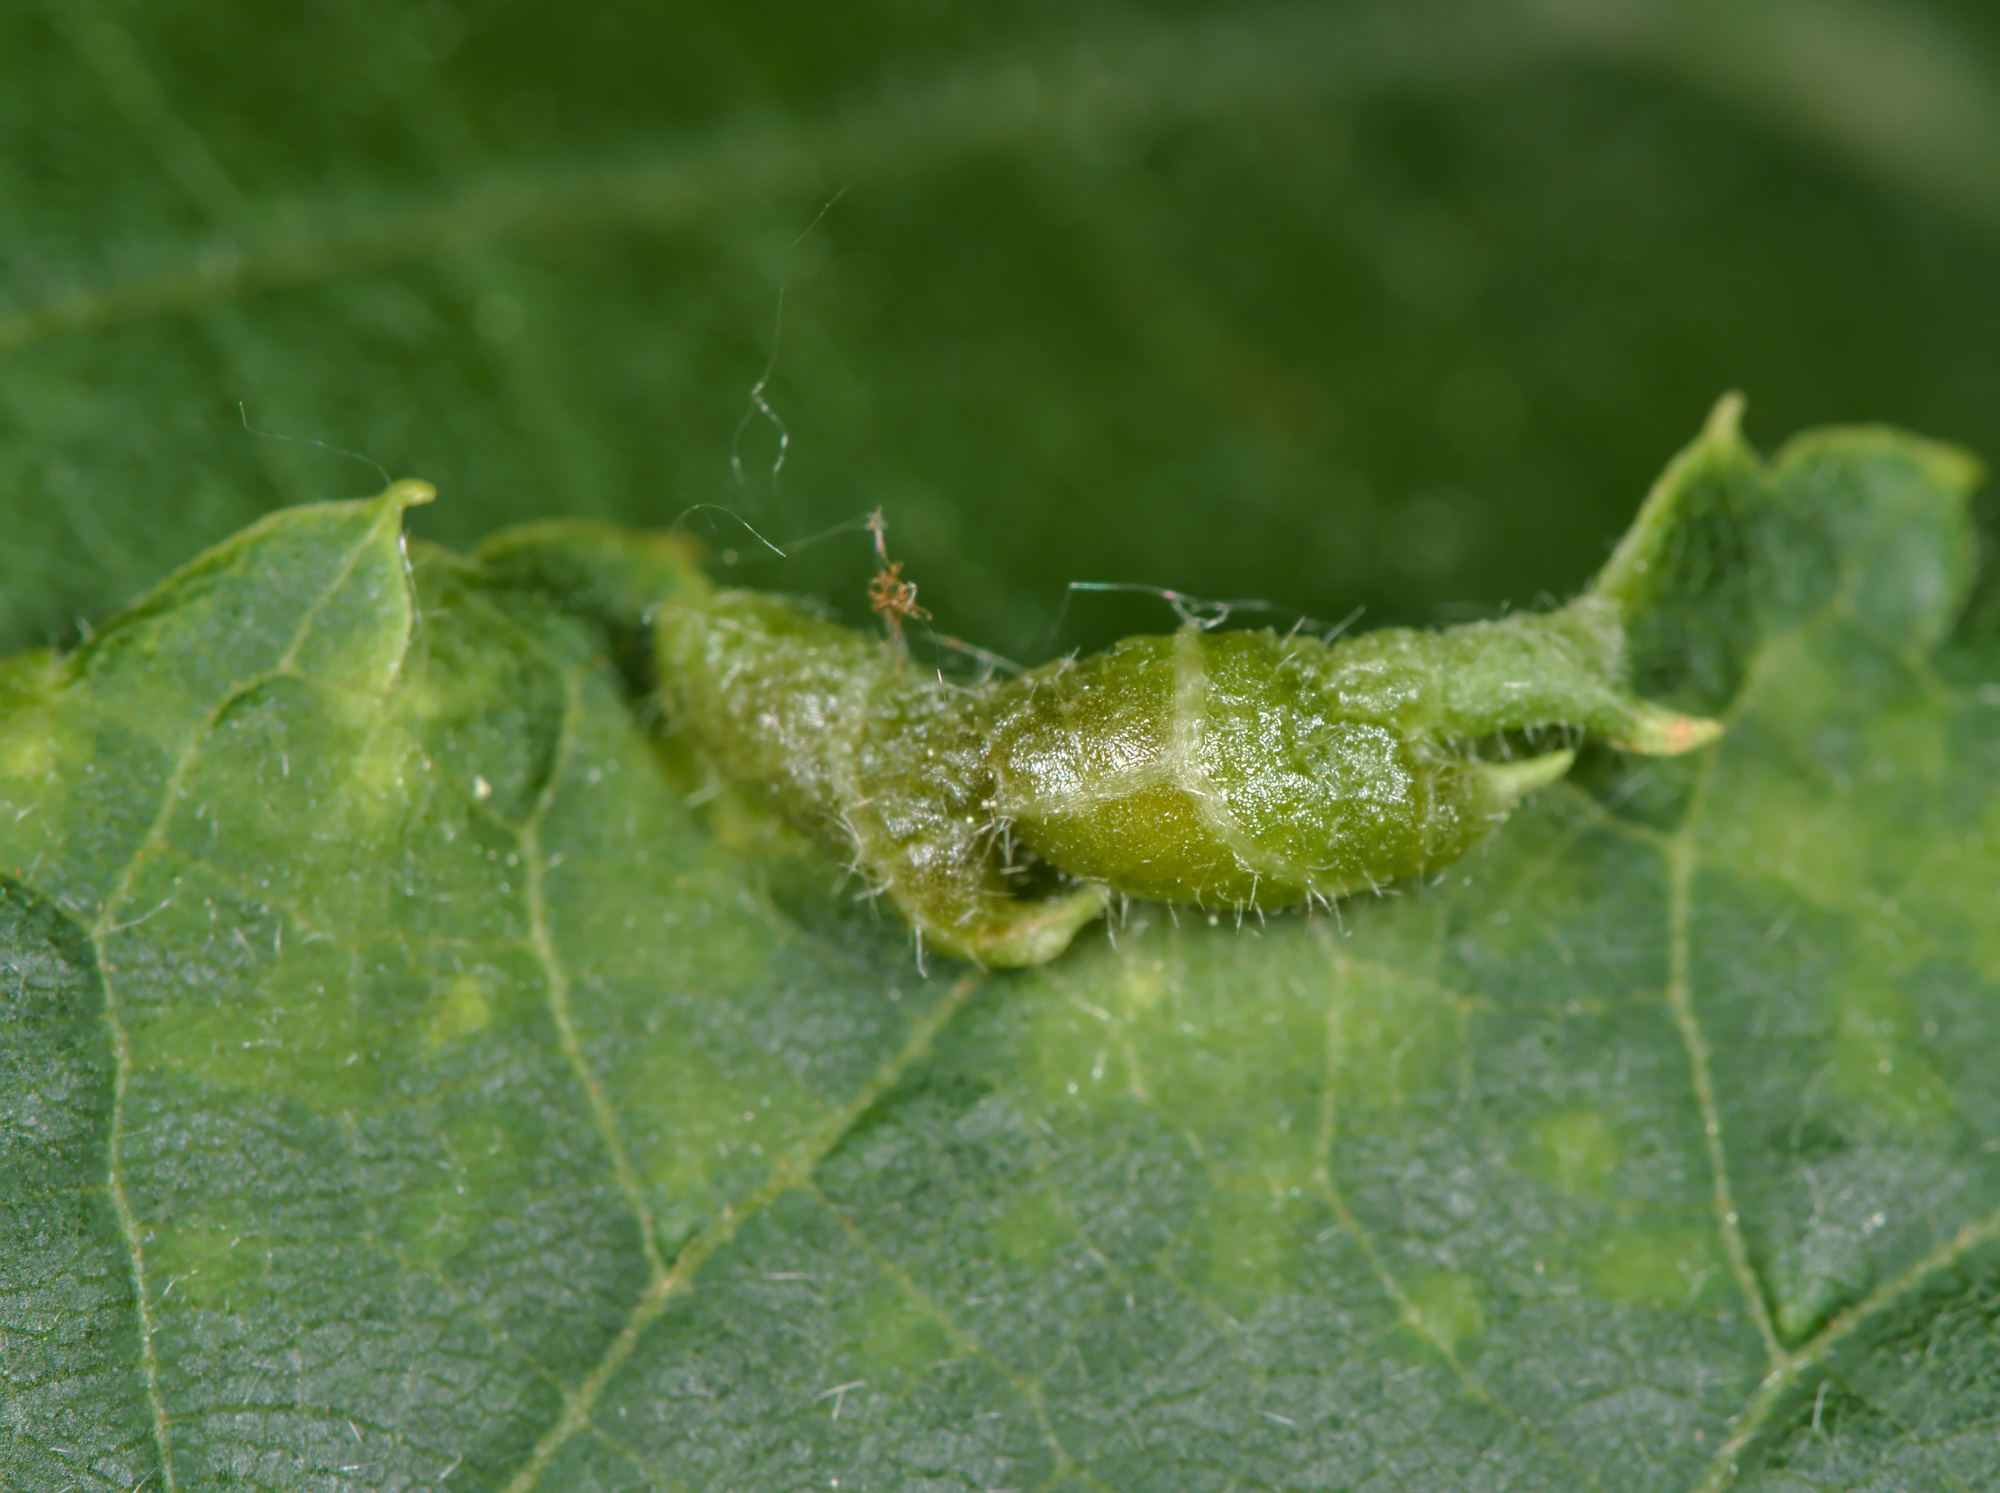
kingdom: Animalia
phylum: Arthropoda
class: Insecta
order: Diptera
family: Cecidomyiidae
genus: Dasineura
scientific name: Dasineura tiliae
